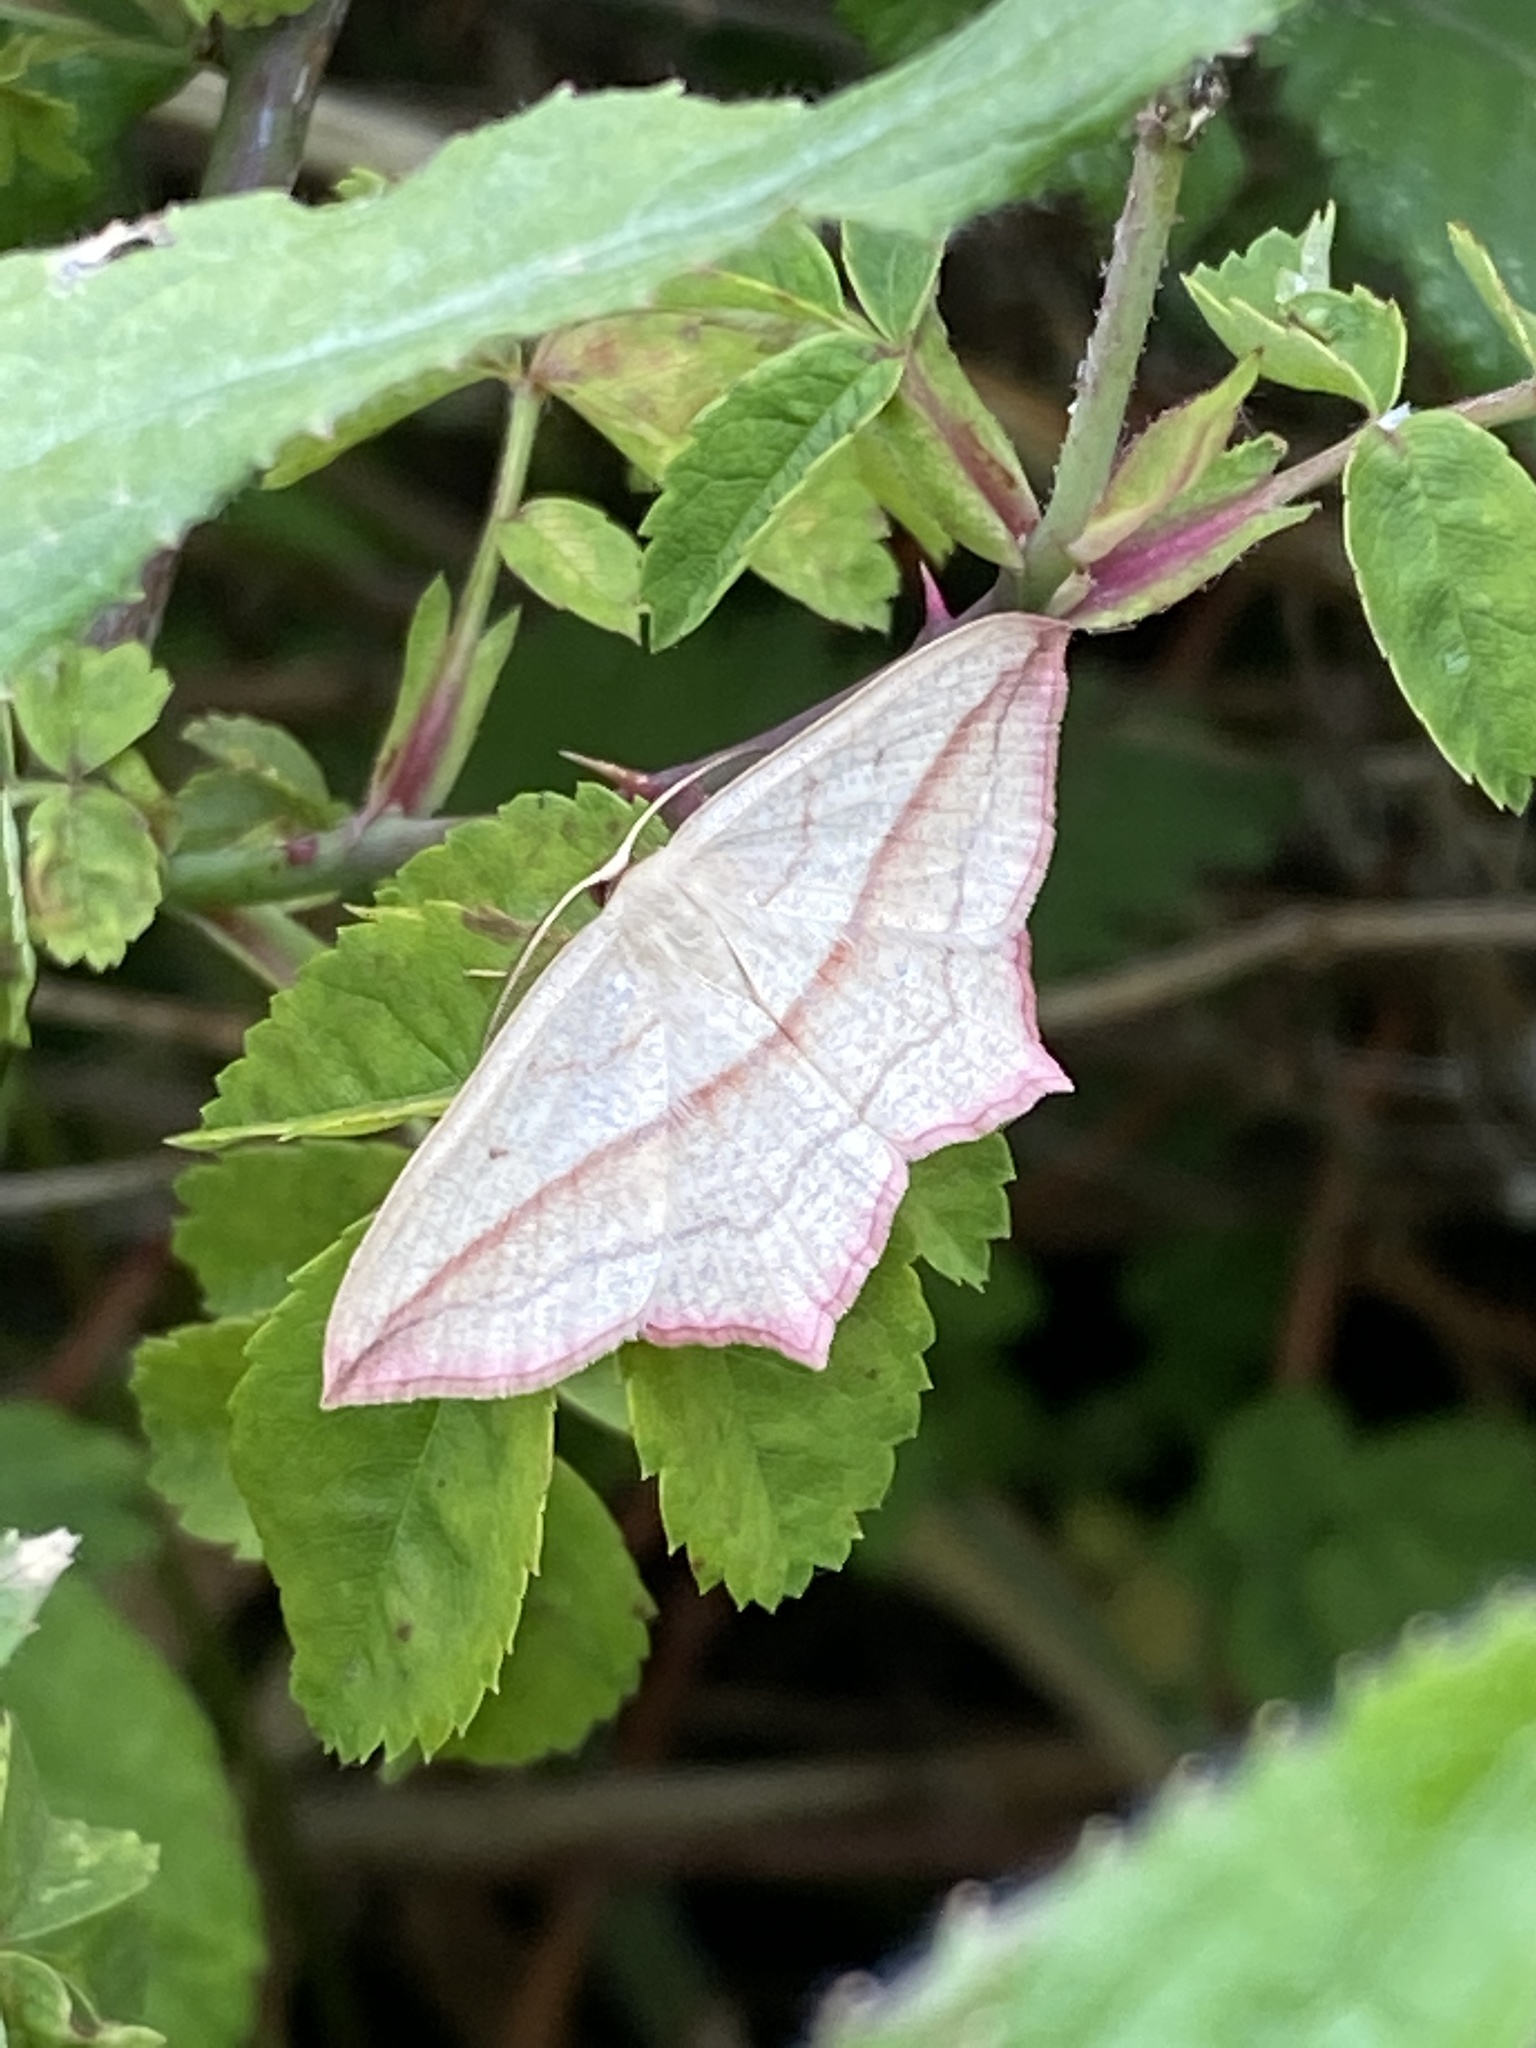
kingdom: Animalia
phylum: Arthropoda
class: Insecta
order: Lepidoptera
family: Geometridae
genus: Timandra
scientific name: Timandra comae
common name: Blood-vein
